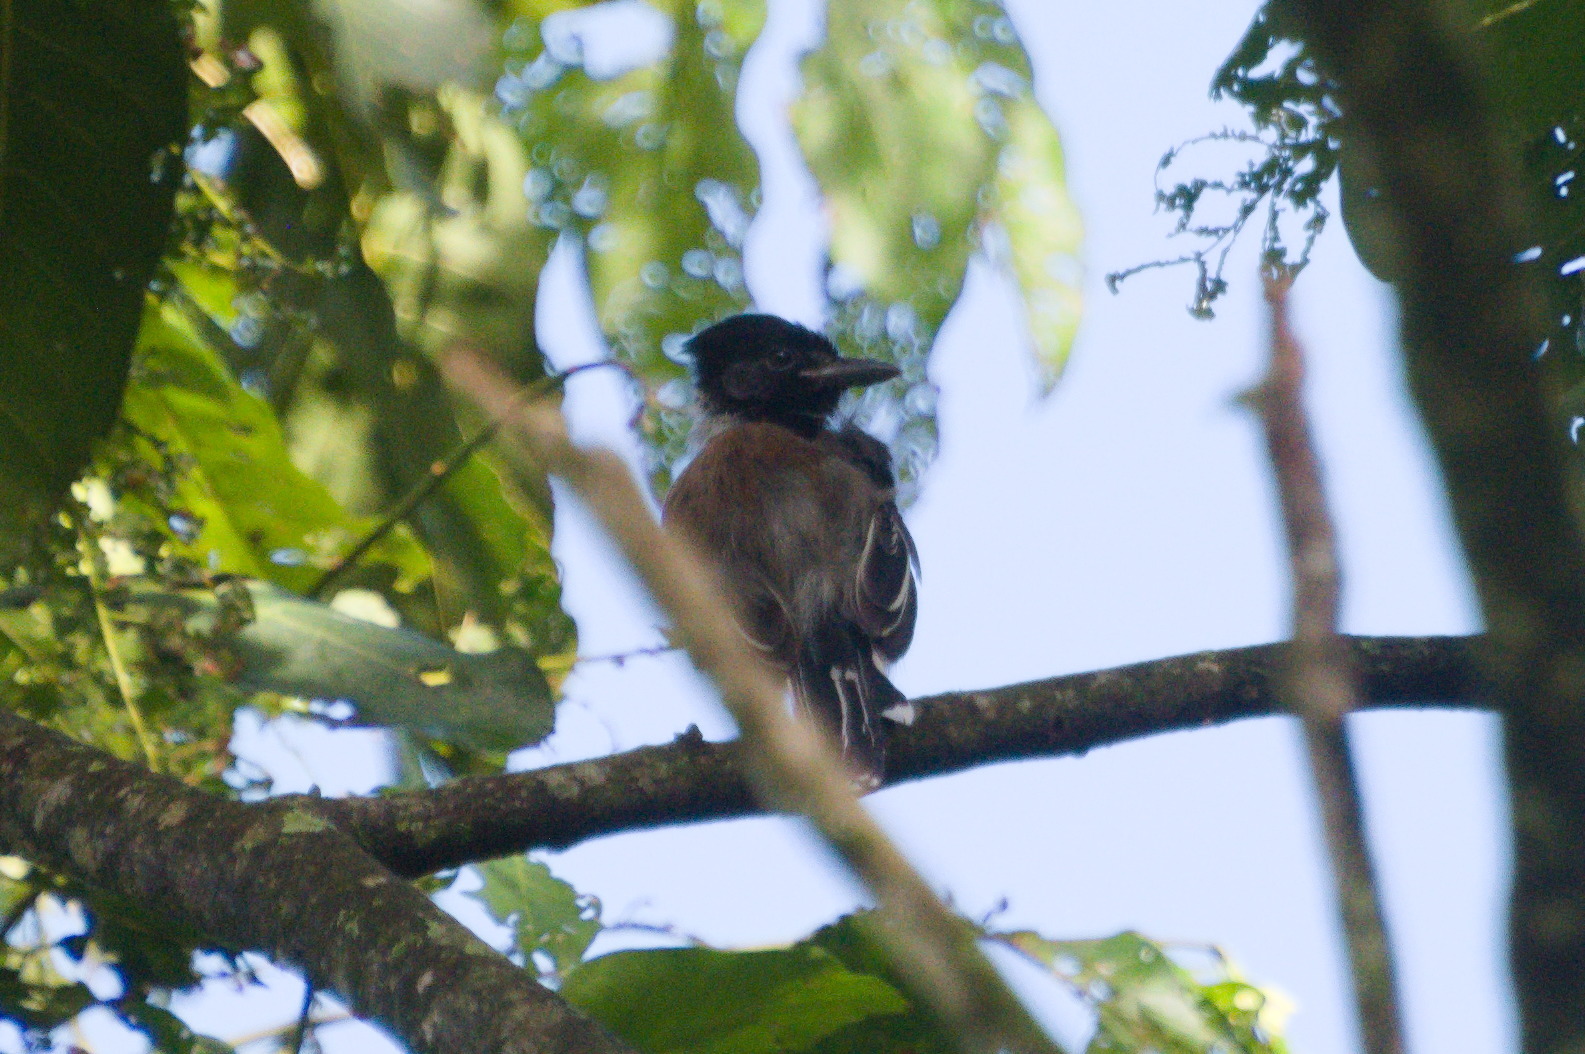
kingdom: Animalia
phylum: Chordata
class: Aves
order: Passeriformes
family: Thamnophilidae
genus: Sakesphorus
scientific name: Sakesphorus canadensis
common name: Black-crested antshrike
